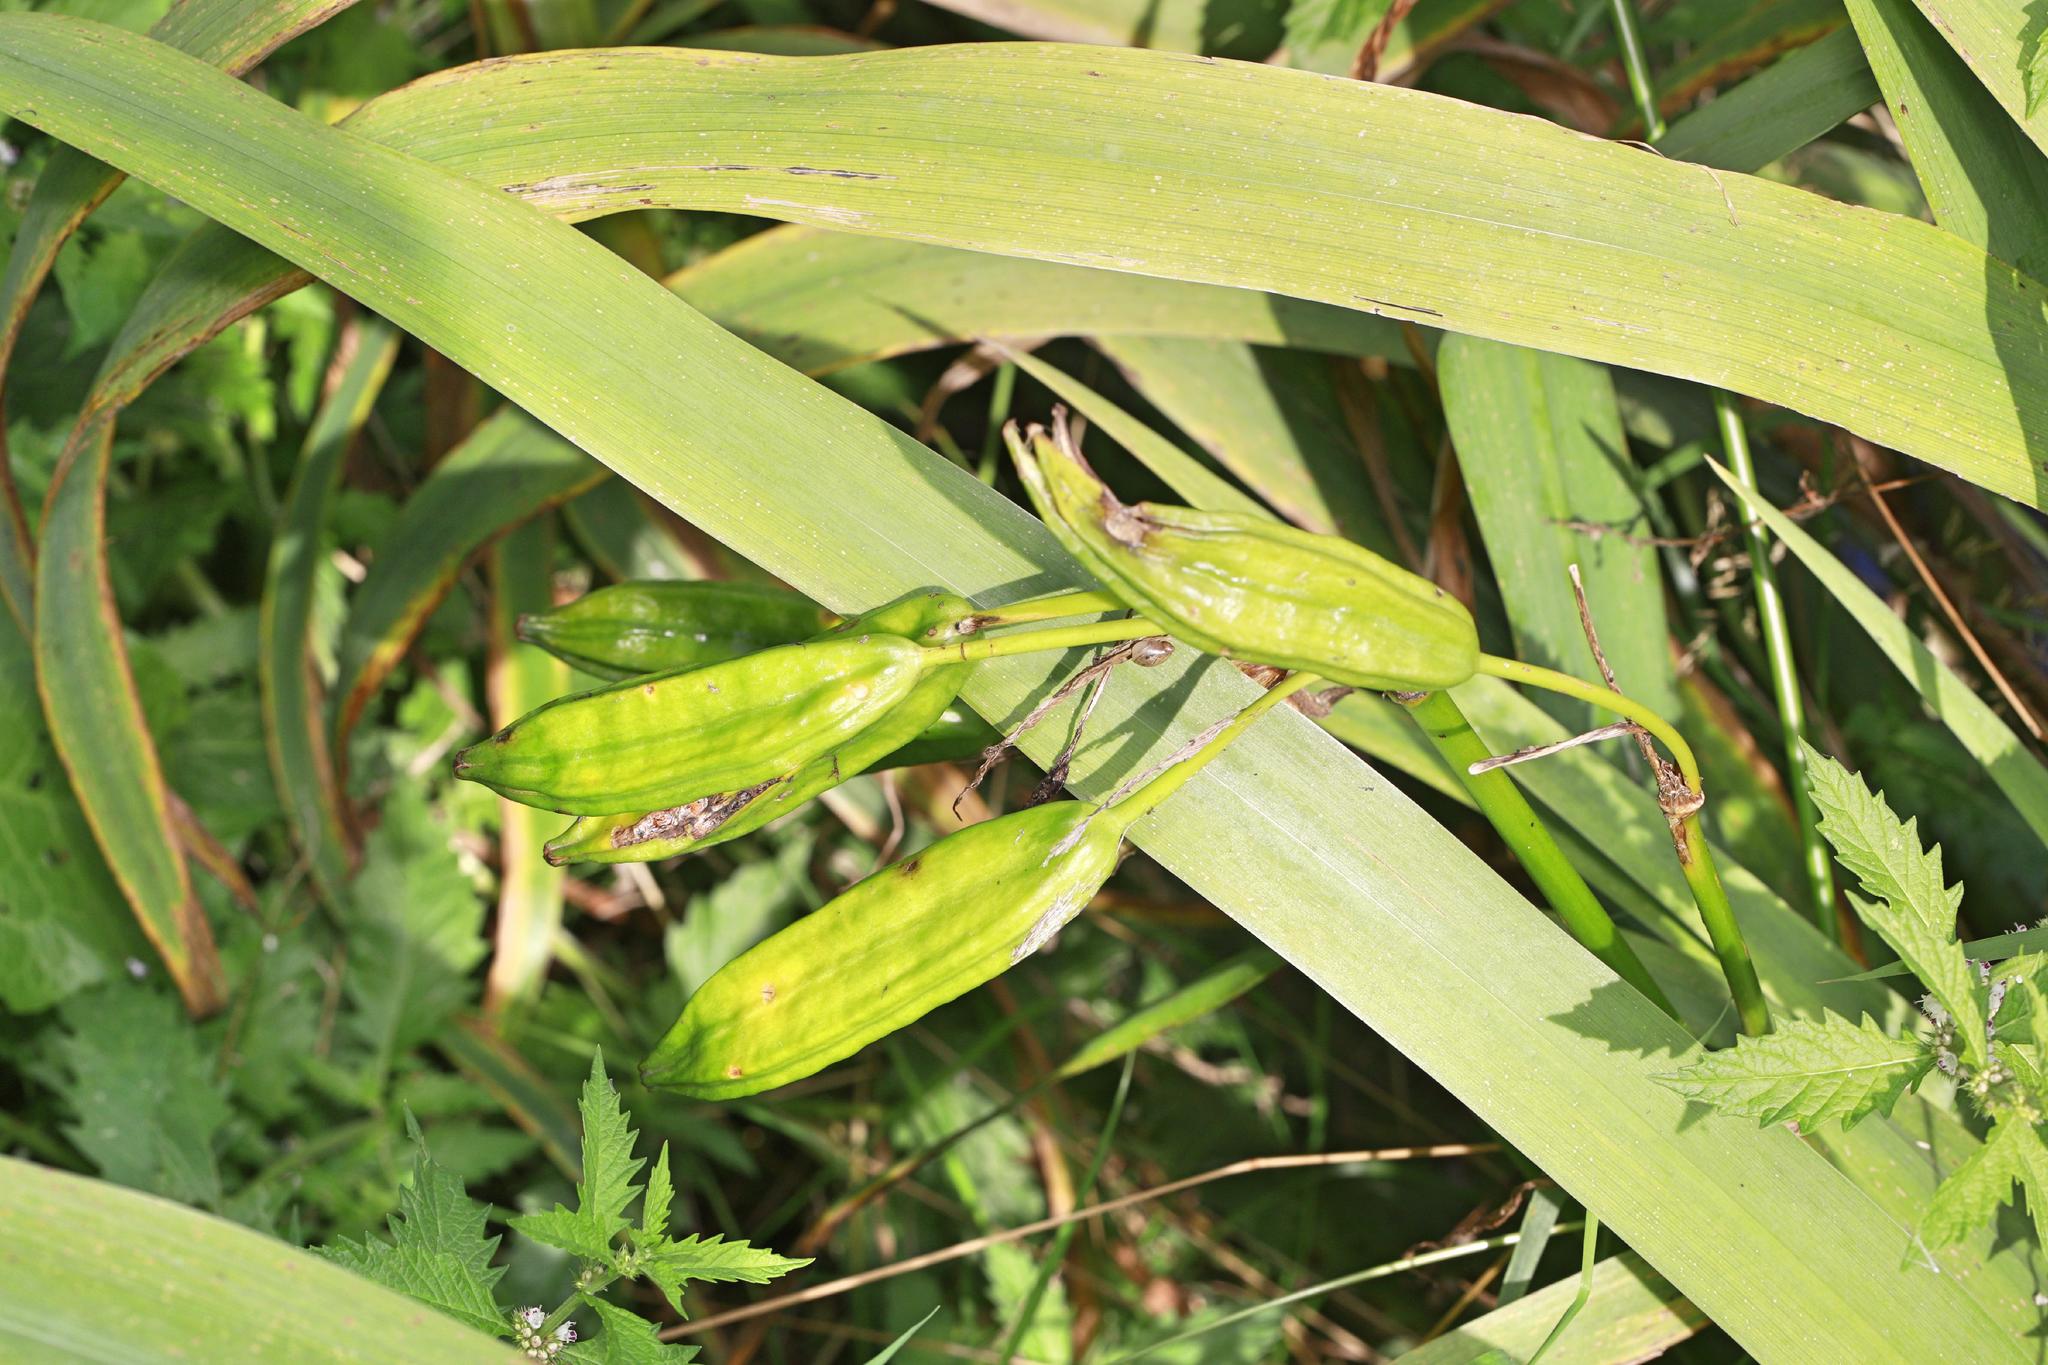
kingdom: Plantae
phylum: Tracheophyta
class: Liliopsida
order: Asparagales
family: Iridaceae
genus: Iris
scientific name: Iris pseudacorus
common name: Yellow flag
